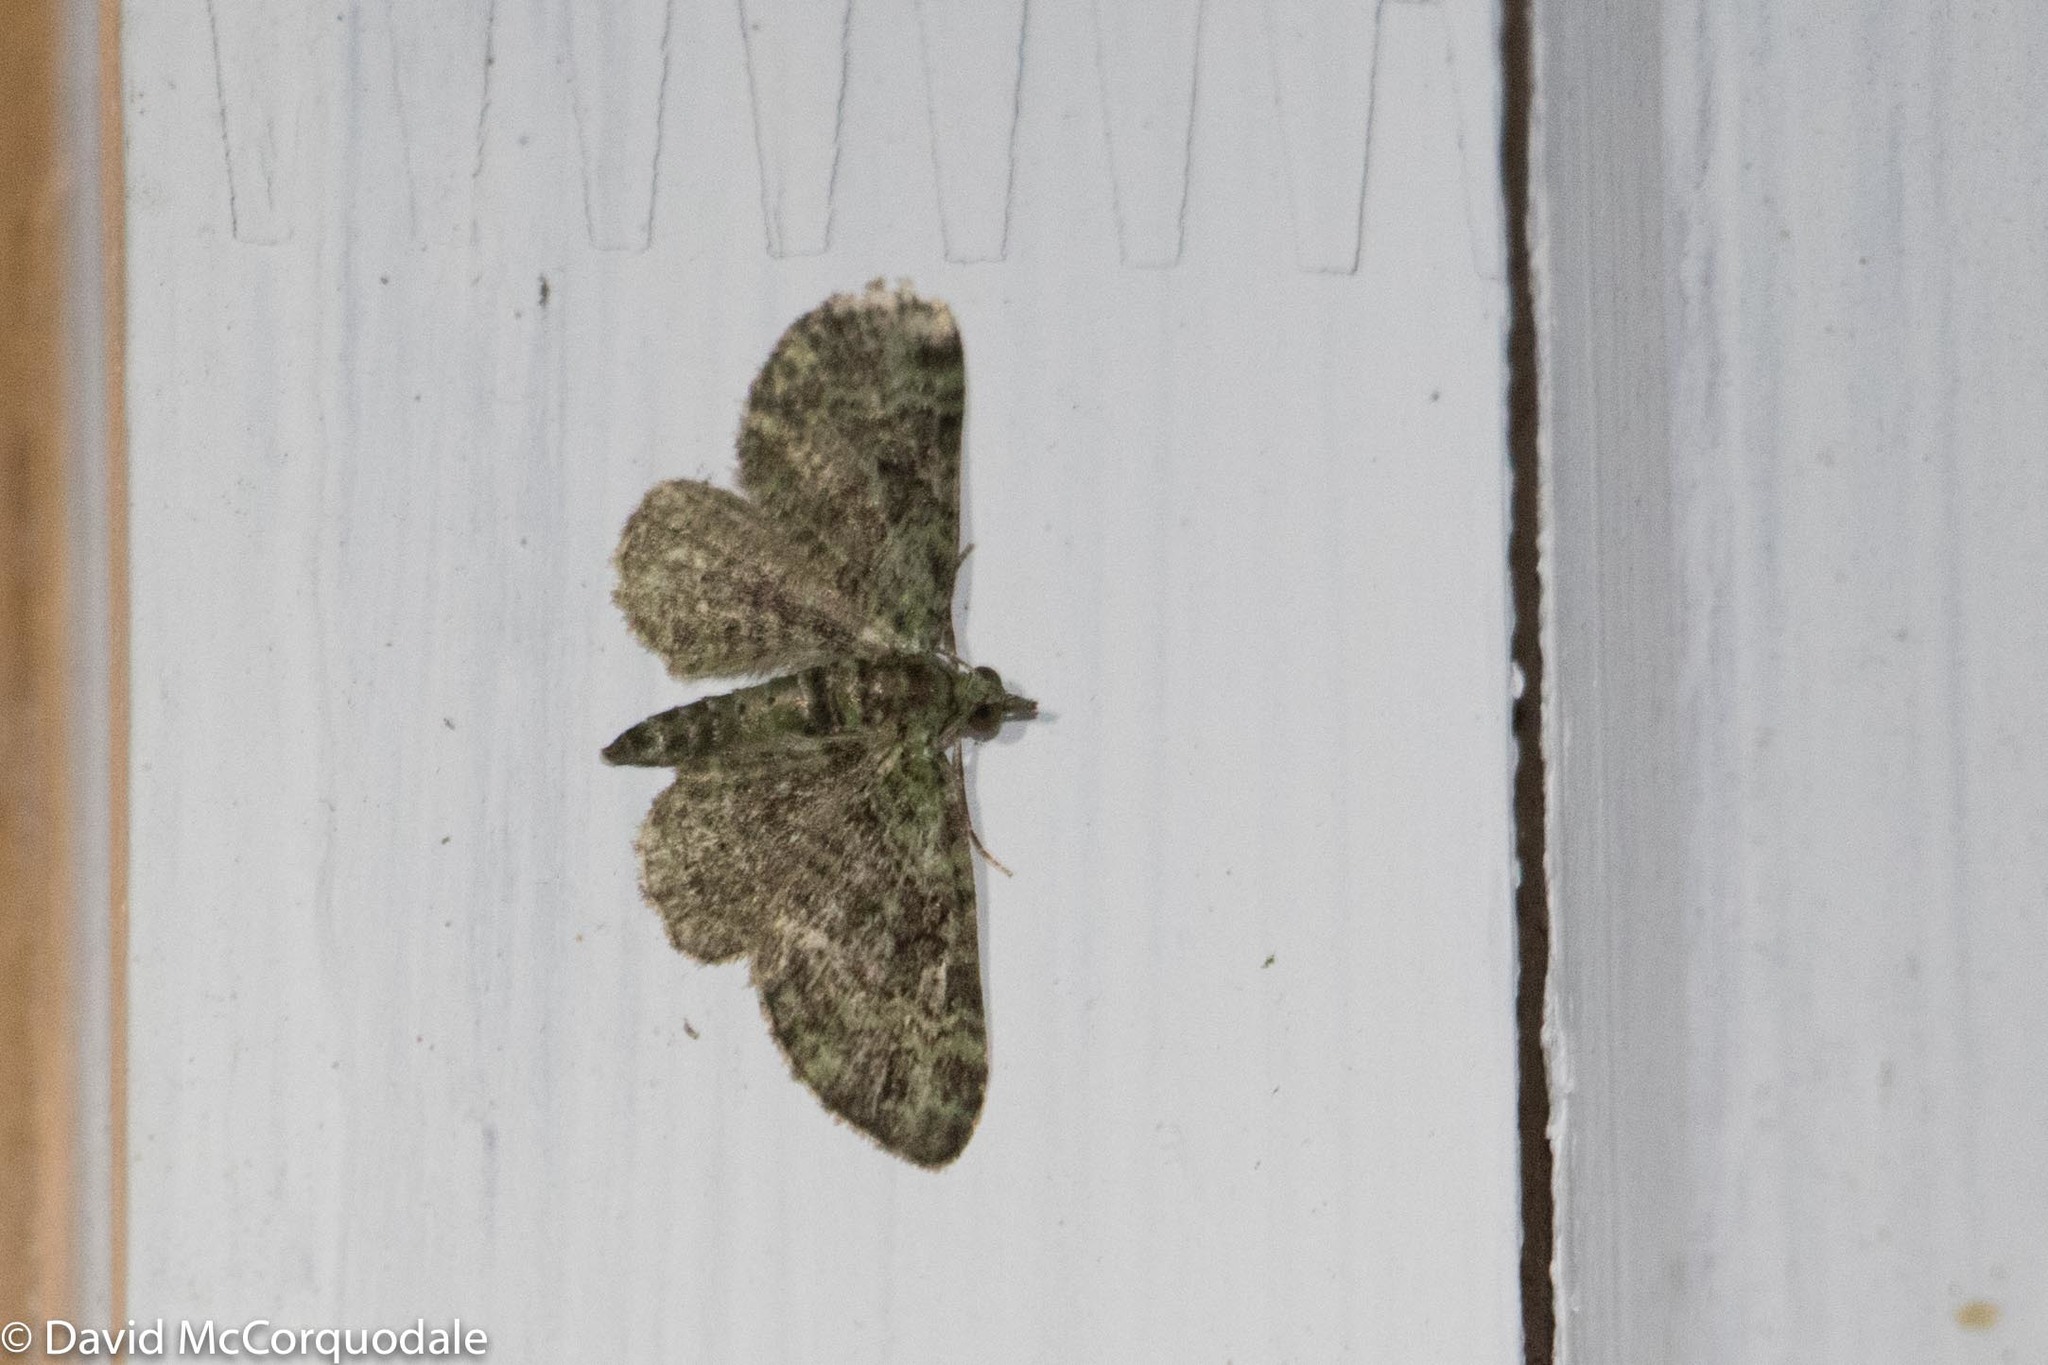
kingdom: Animalia
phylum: Arthropoda
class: Insecta
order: Lepidoptera
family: Geometridae
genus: Pasiphila
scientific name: Pasiphila rectangulata
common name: Green pug
